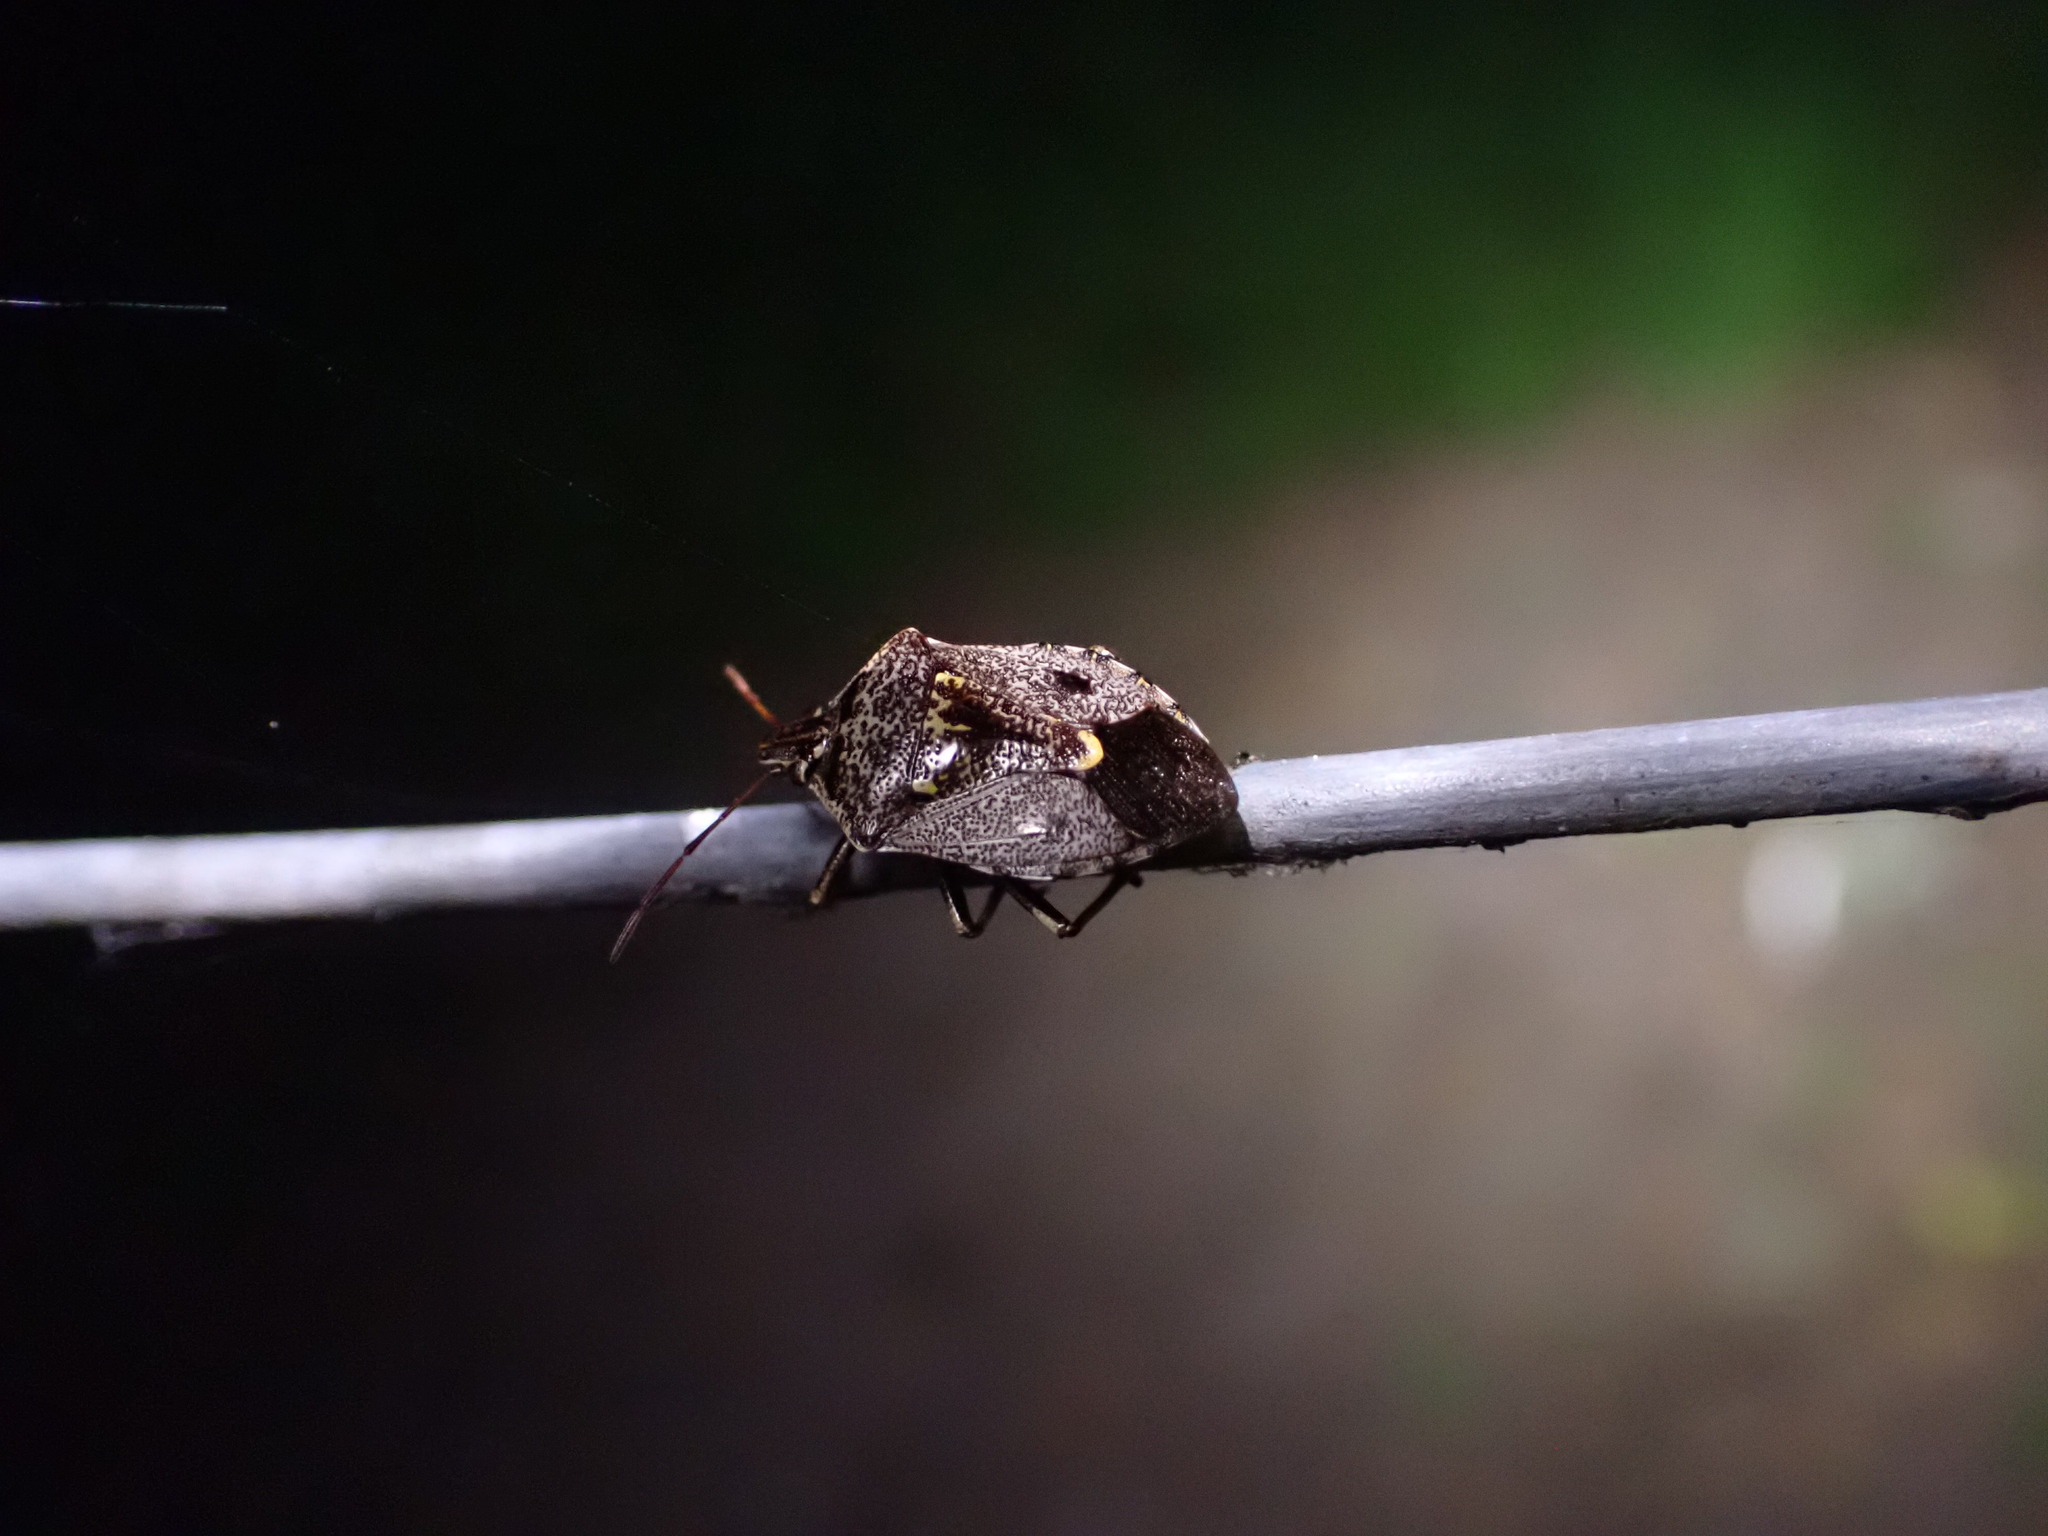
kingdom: Animalia
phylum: Arthropoda
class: Insecta
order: Hemiptera
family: Pentatomidae
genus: Cermatulus
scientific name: Cermatulus nasalis
